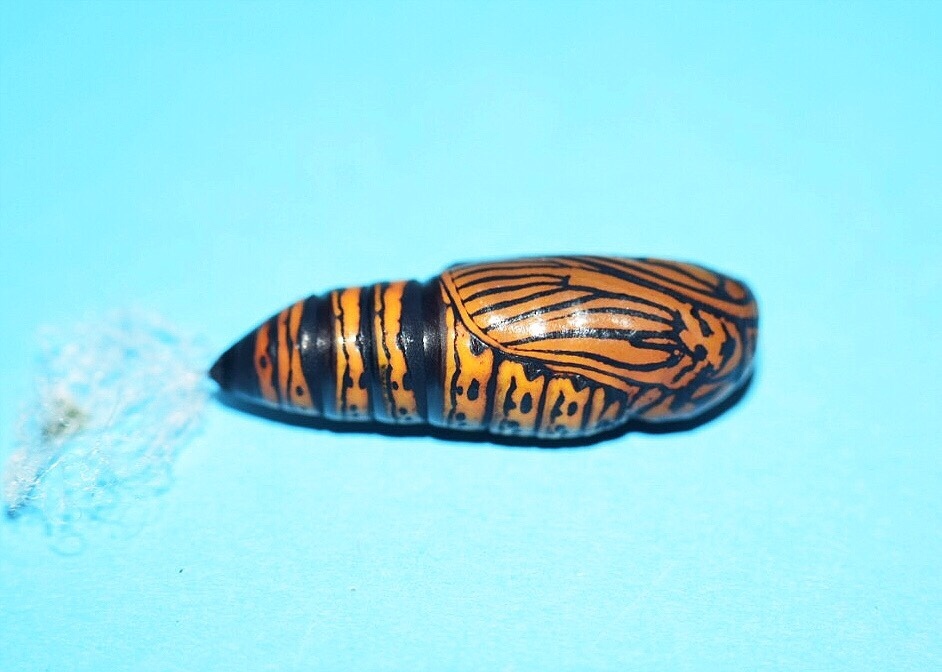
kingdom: Animalia
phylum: Arthropoda
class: Insecta
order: Lepidoptera
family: Erebidae
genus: Egybolis
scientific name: Egybolis vaillantina
